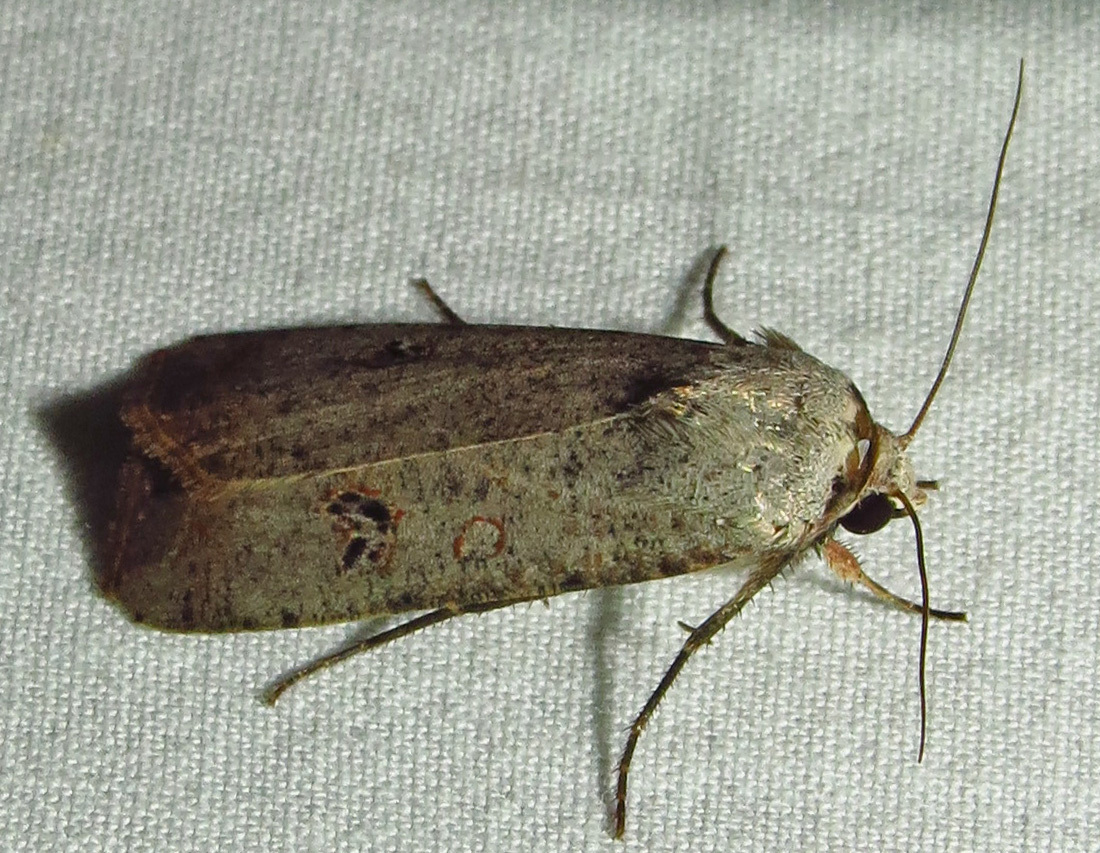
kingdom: Animalia
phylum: Arthropoda
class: Insecta
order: Lepidoptera
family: Noctuidae
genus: Anicla
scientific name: Anicla infecta
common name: Green cutworm
